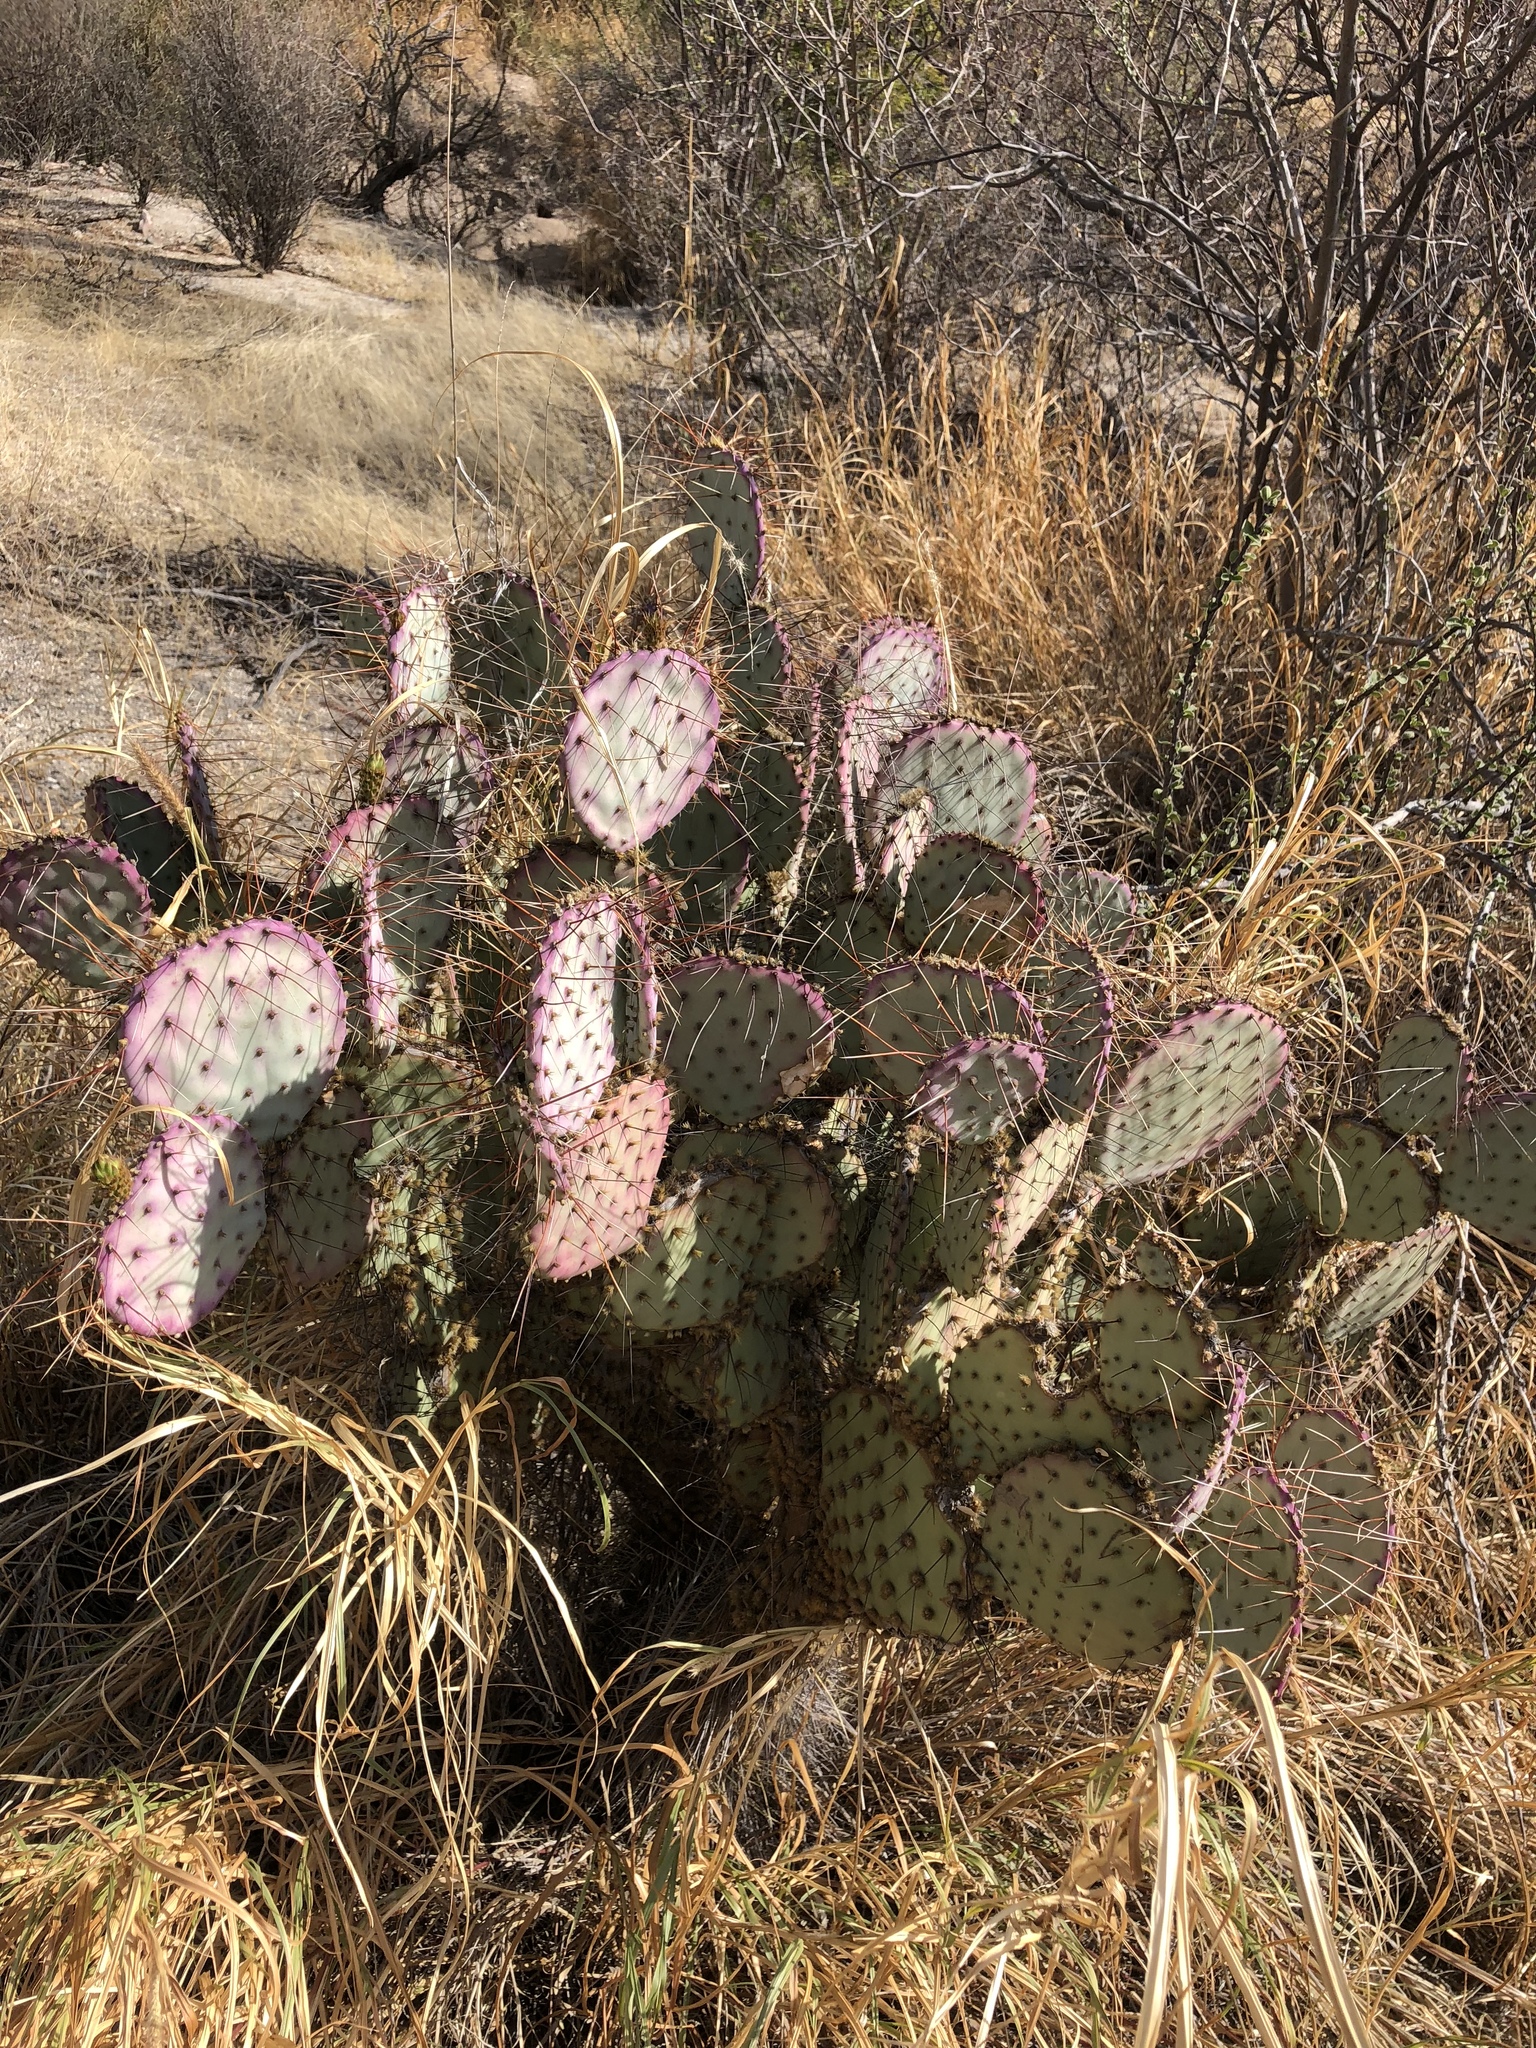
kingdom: Plantae
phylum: Tracheophyta
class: Magnoliopsida
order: Caryophyllales
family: Cactaceae
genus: Opuntia
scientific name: Opuntia gosseliniana
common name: Violet prickly-pear
